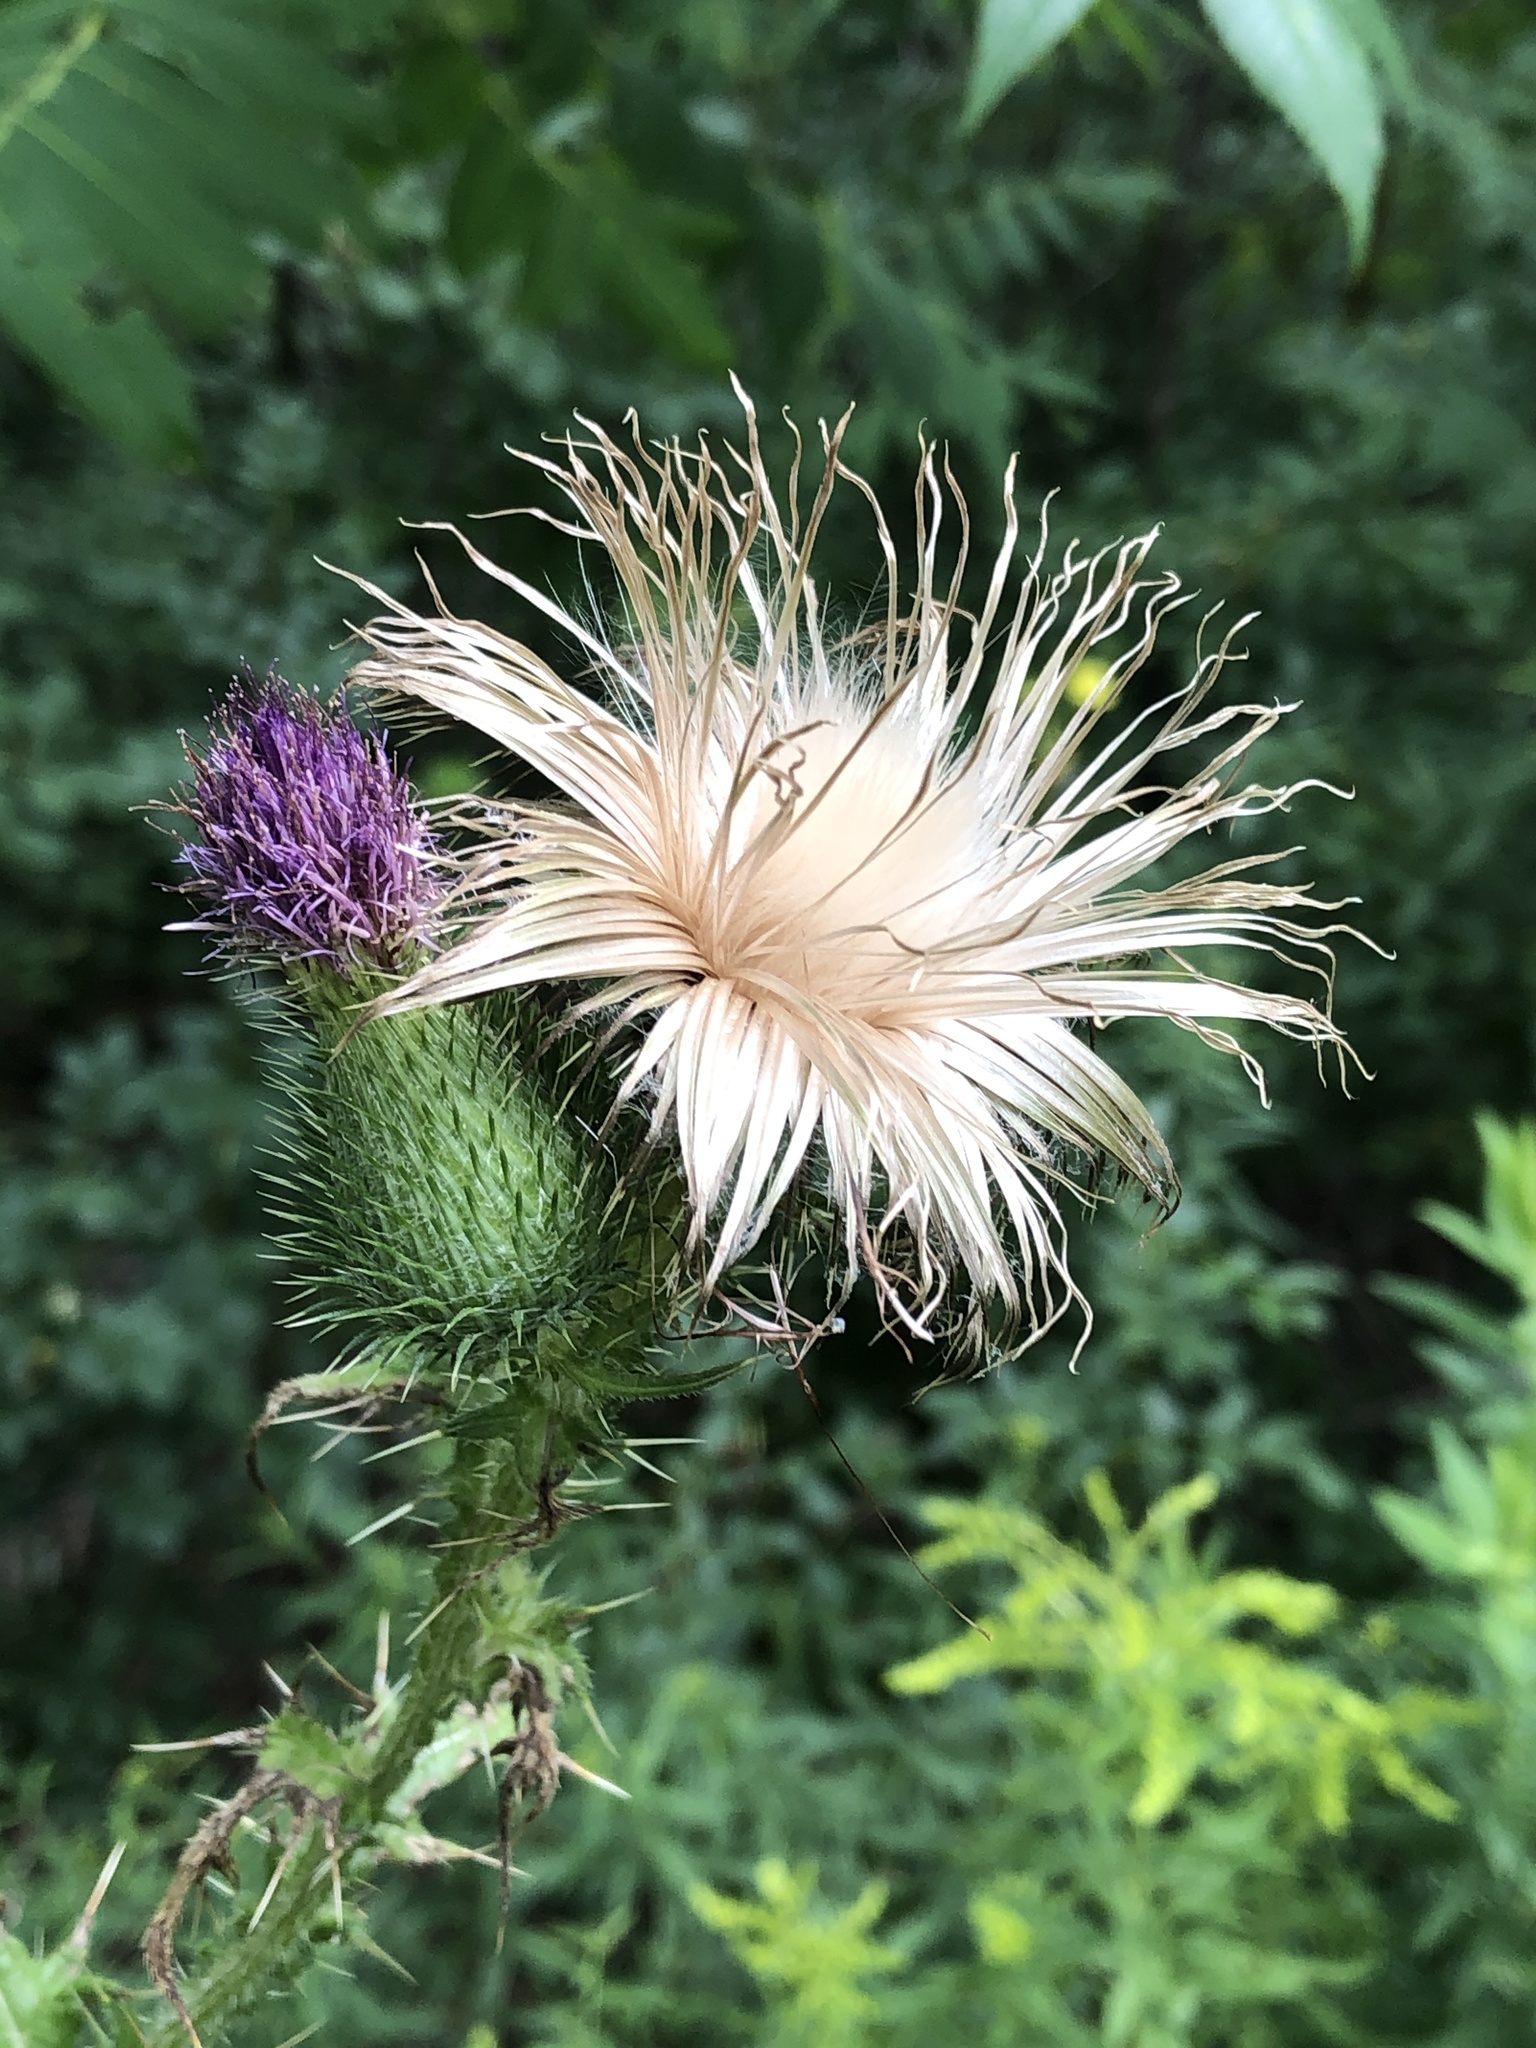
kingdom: Plantae
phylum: Tracheophyta
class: Magnoliopsida
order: Asterales
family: Asteraceae
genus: Cirsium
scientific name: Cirsium vulgare
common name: Bull thistle
